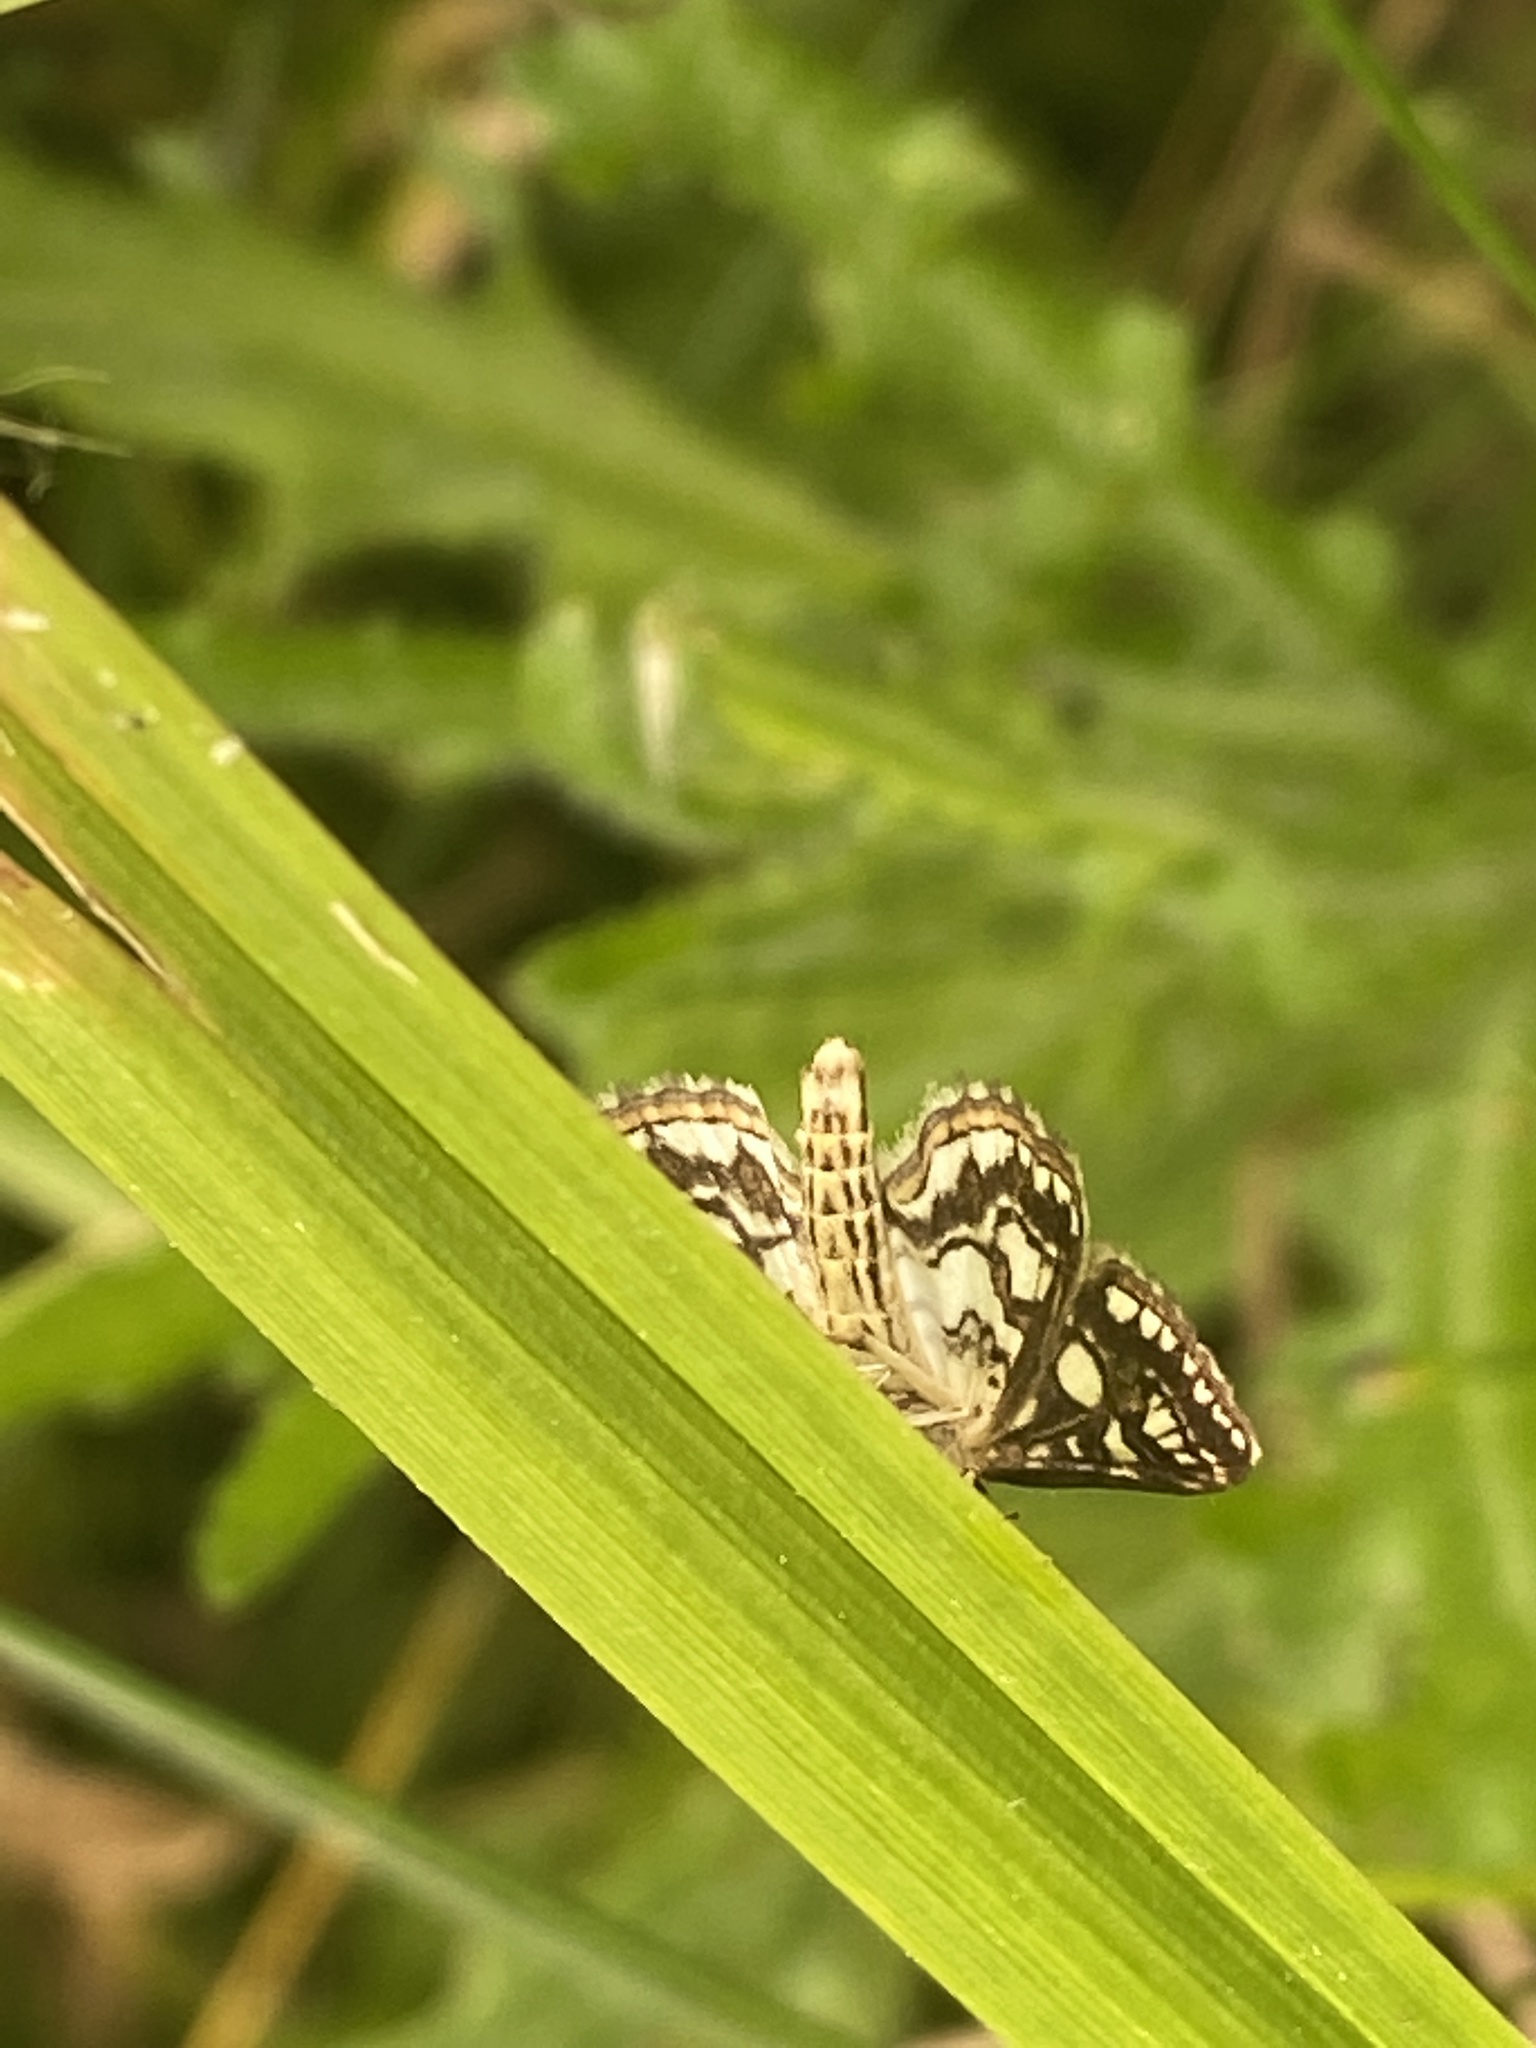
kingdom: Animalia
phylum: Arthropoda
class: Insecta
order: Lepidoptera
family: Crambidae
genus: Elophila
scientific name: Elophila nymphaeata
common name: Brown china-mark
